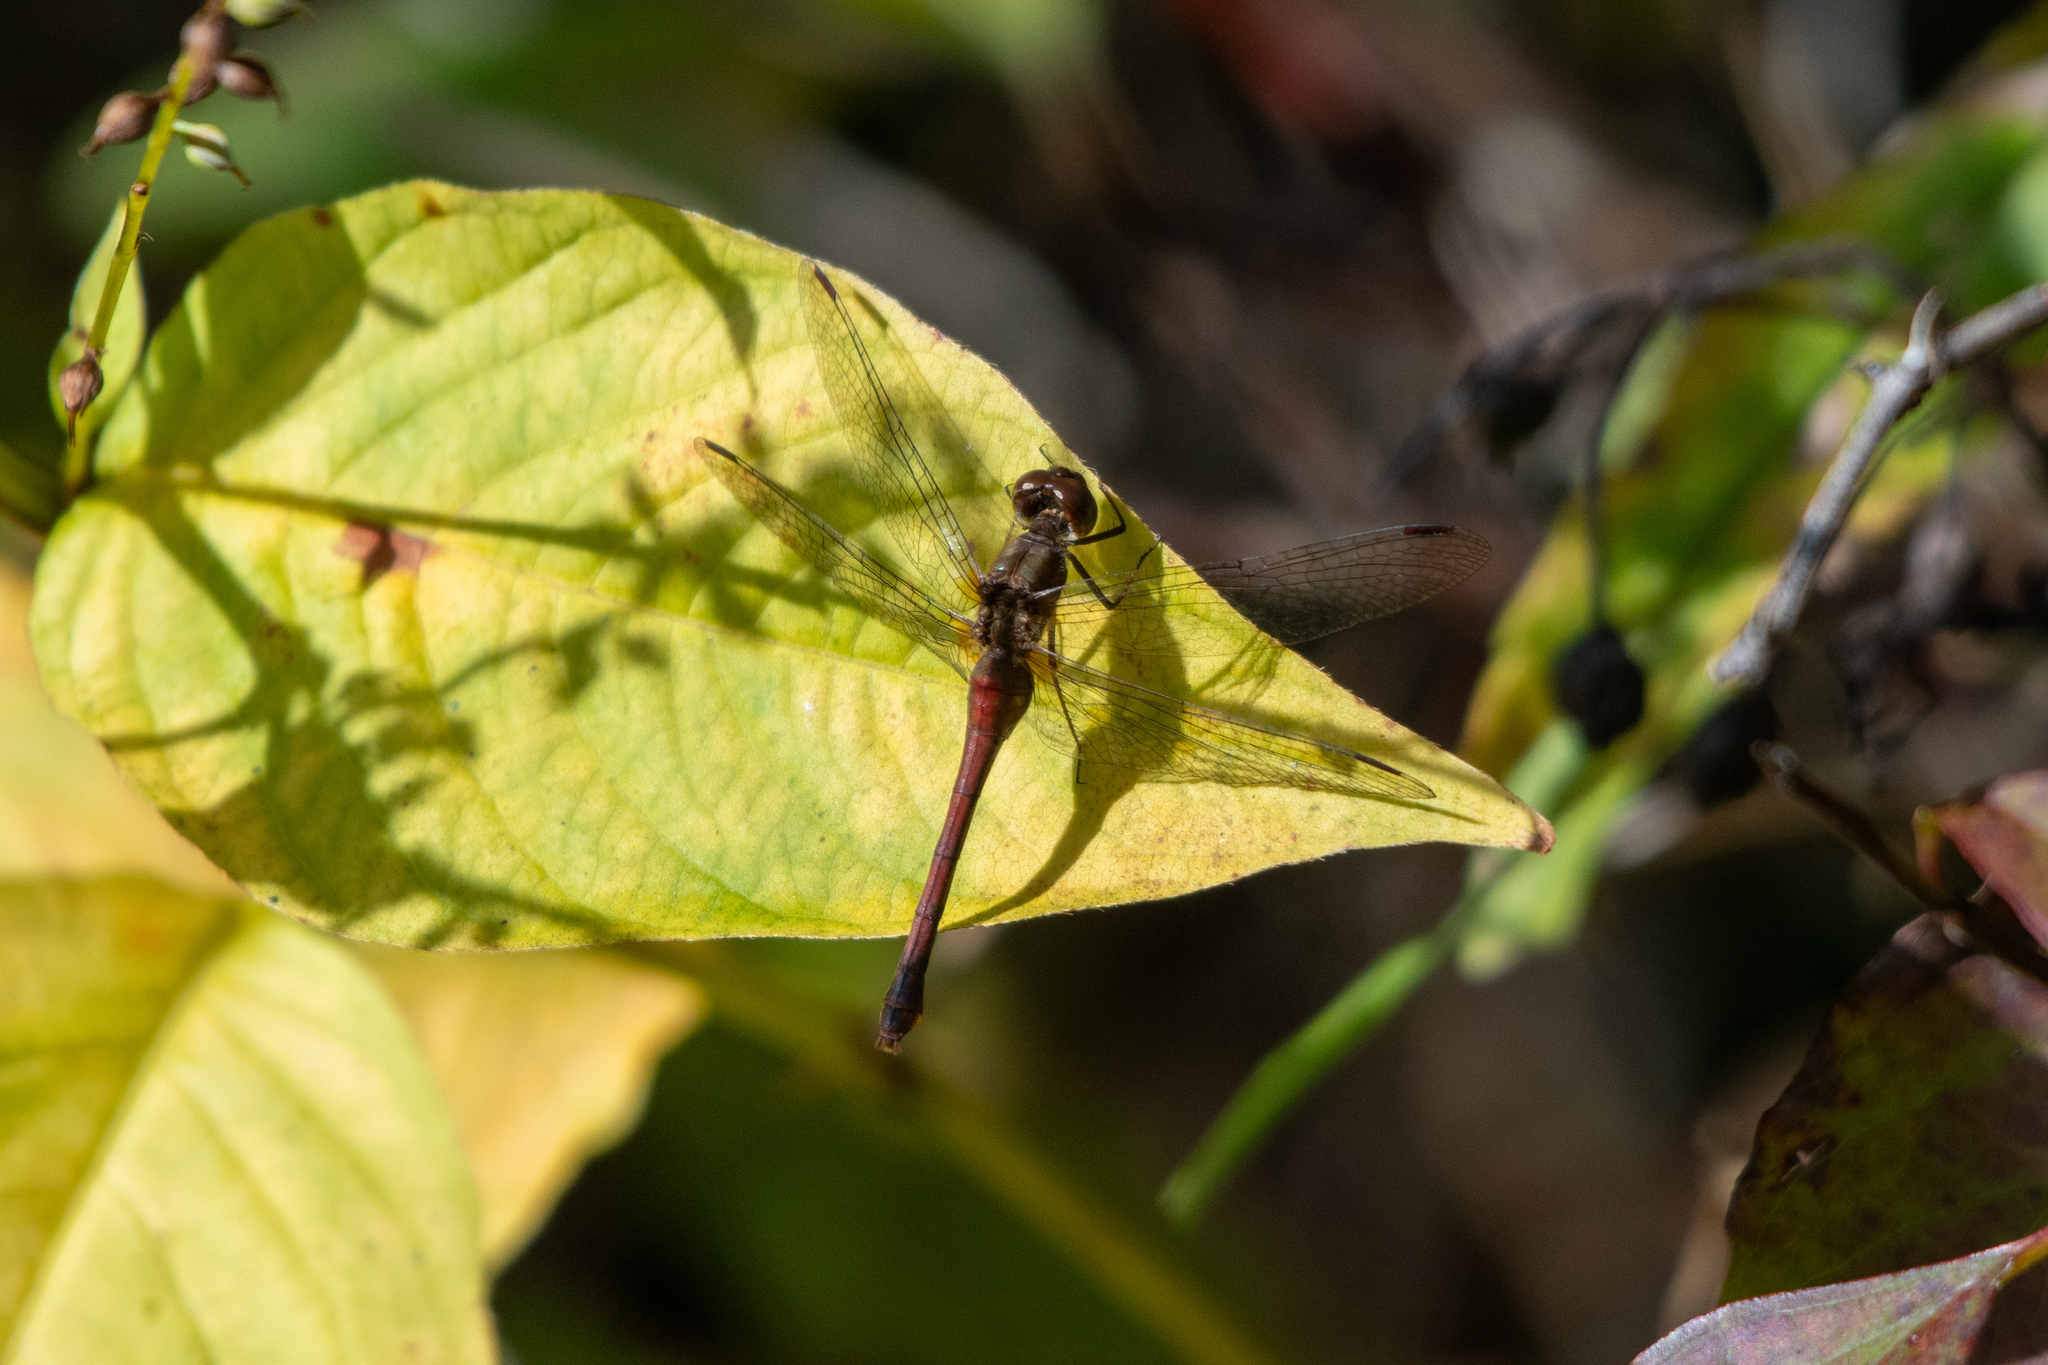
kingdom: Animalia
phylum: Arthropoda
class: Insecta
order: Odonata
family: Libellulidae
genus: Sympetrum
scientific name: Sympetrum vicinum
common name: Autumn meadowhawk
